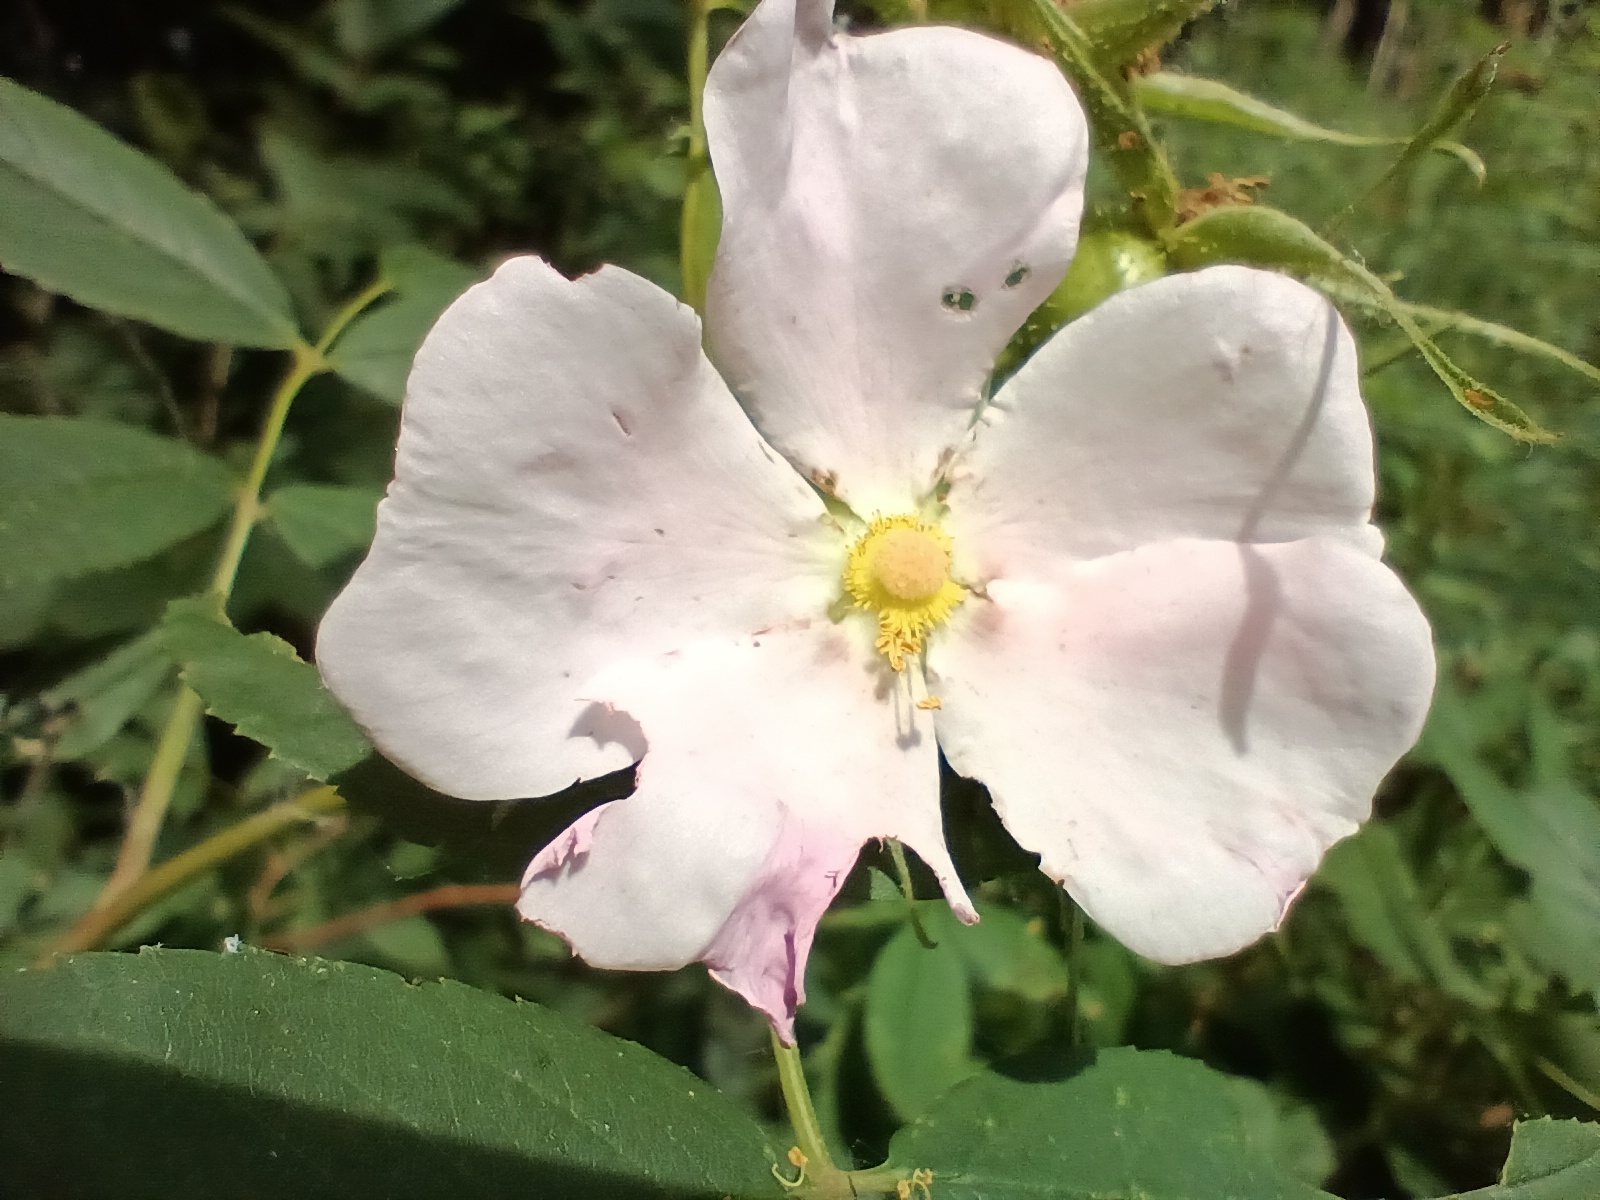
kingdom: Plantae
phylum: Tracheophyta
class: Magnoliopsida
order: Rosales
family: Rosaceae
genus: Rosa
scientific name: Rosa palustris
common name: Swamp rose
